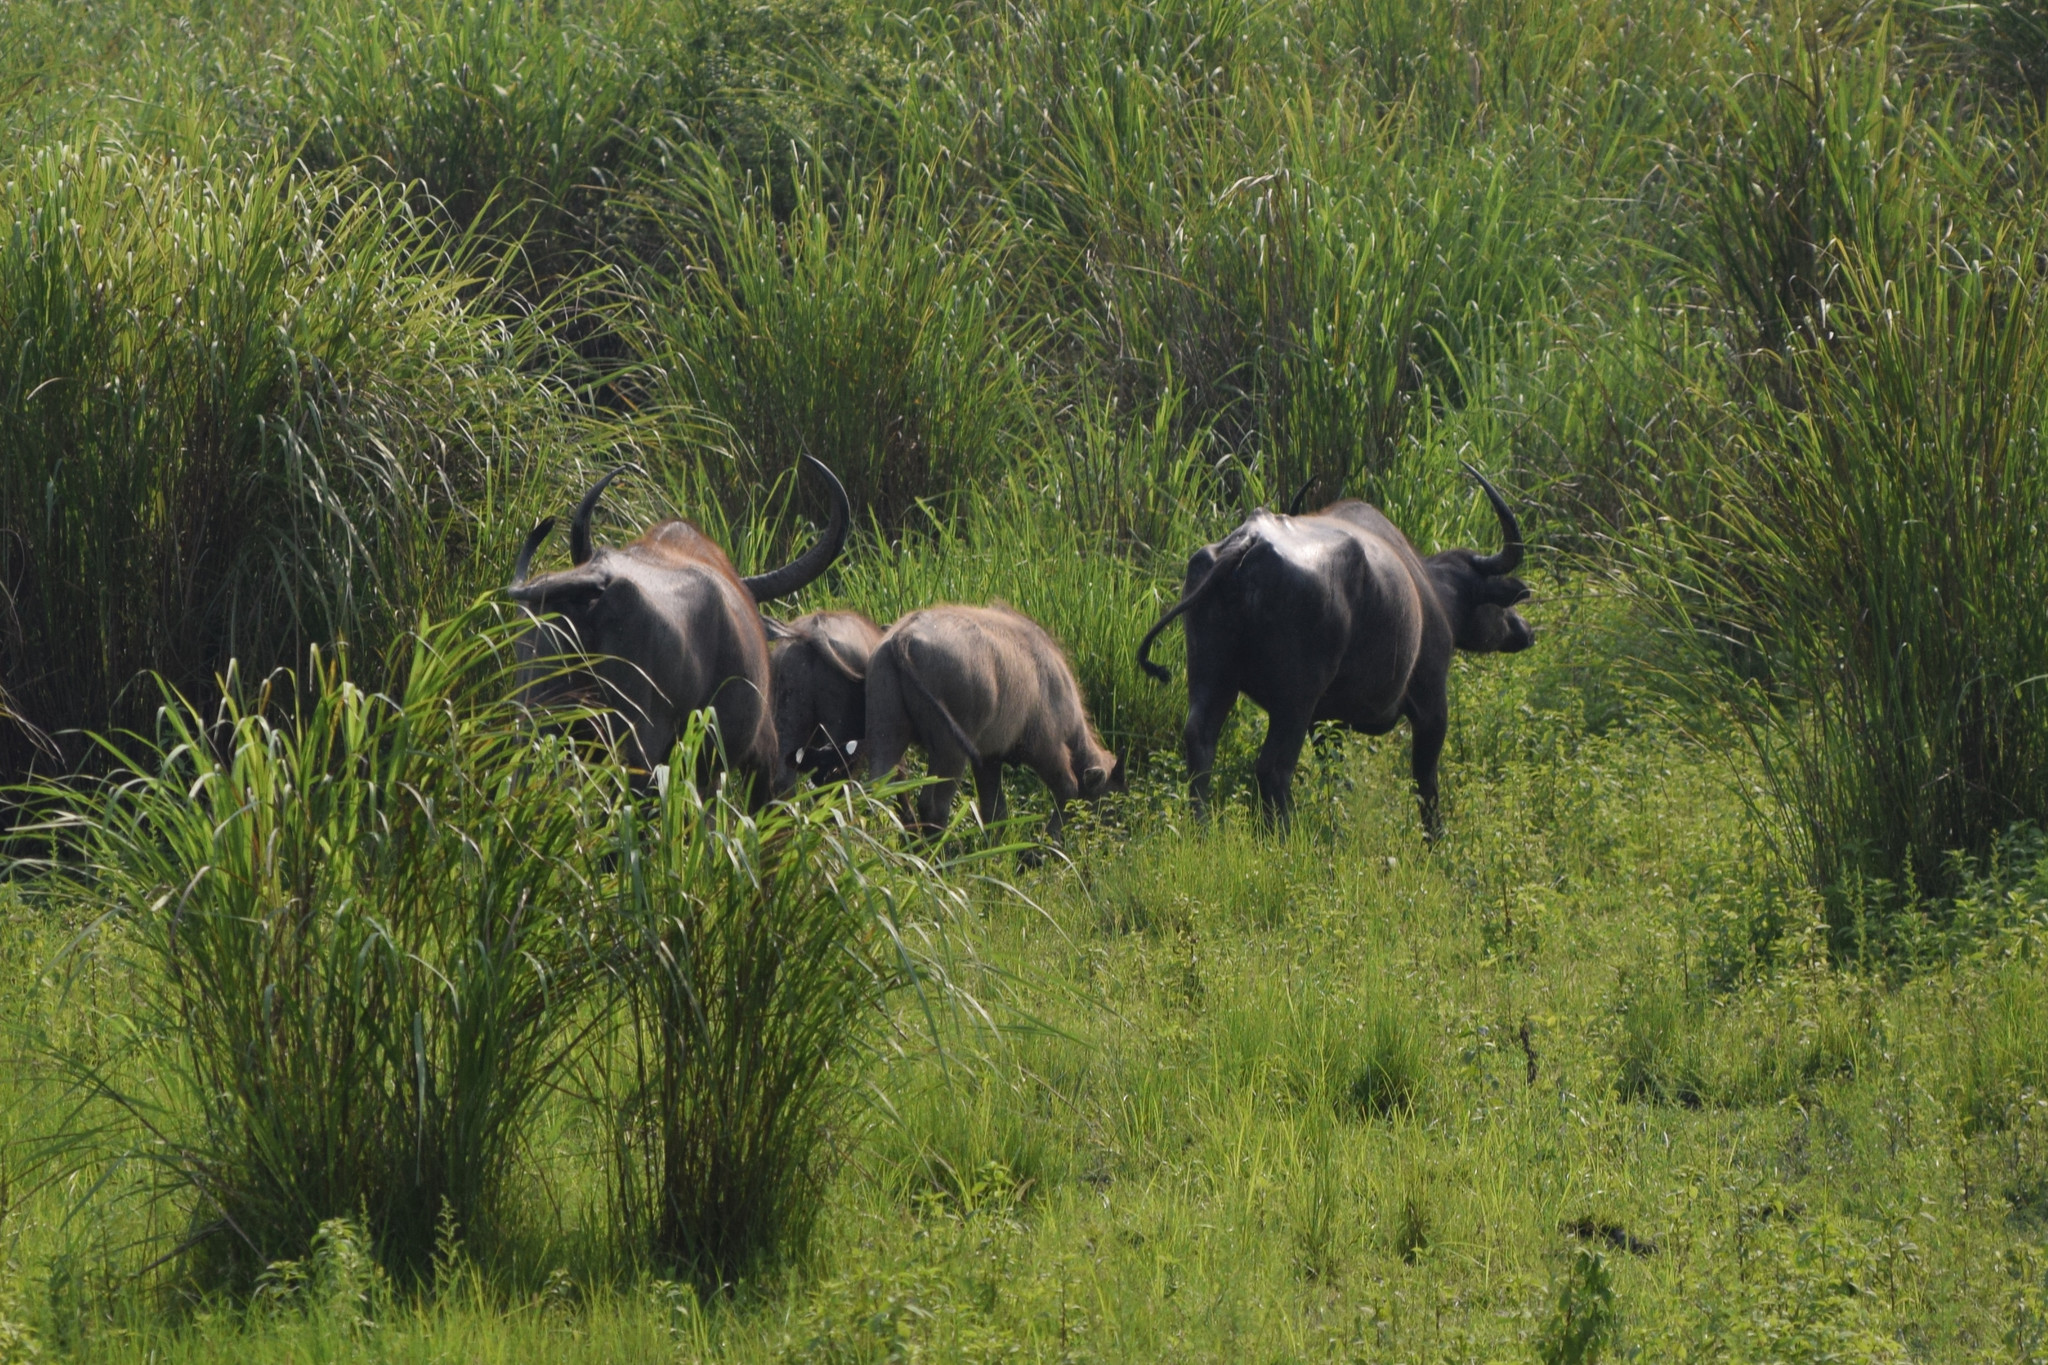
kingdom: Animalia
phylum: Chordata
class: Mammalia
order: Artiodactyla
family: Bovidae
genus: Bubalus
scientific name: Bubalus bubalis
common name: Water buffalo
